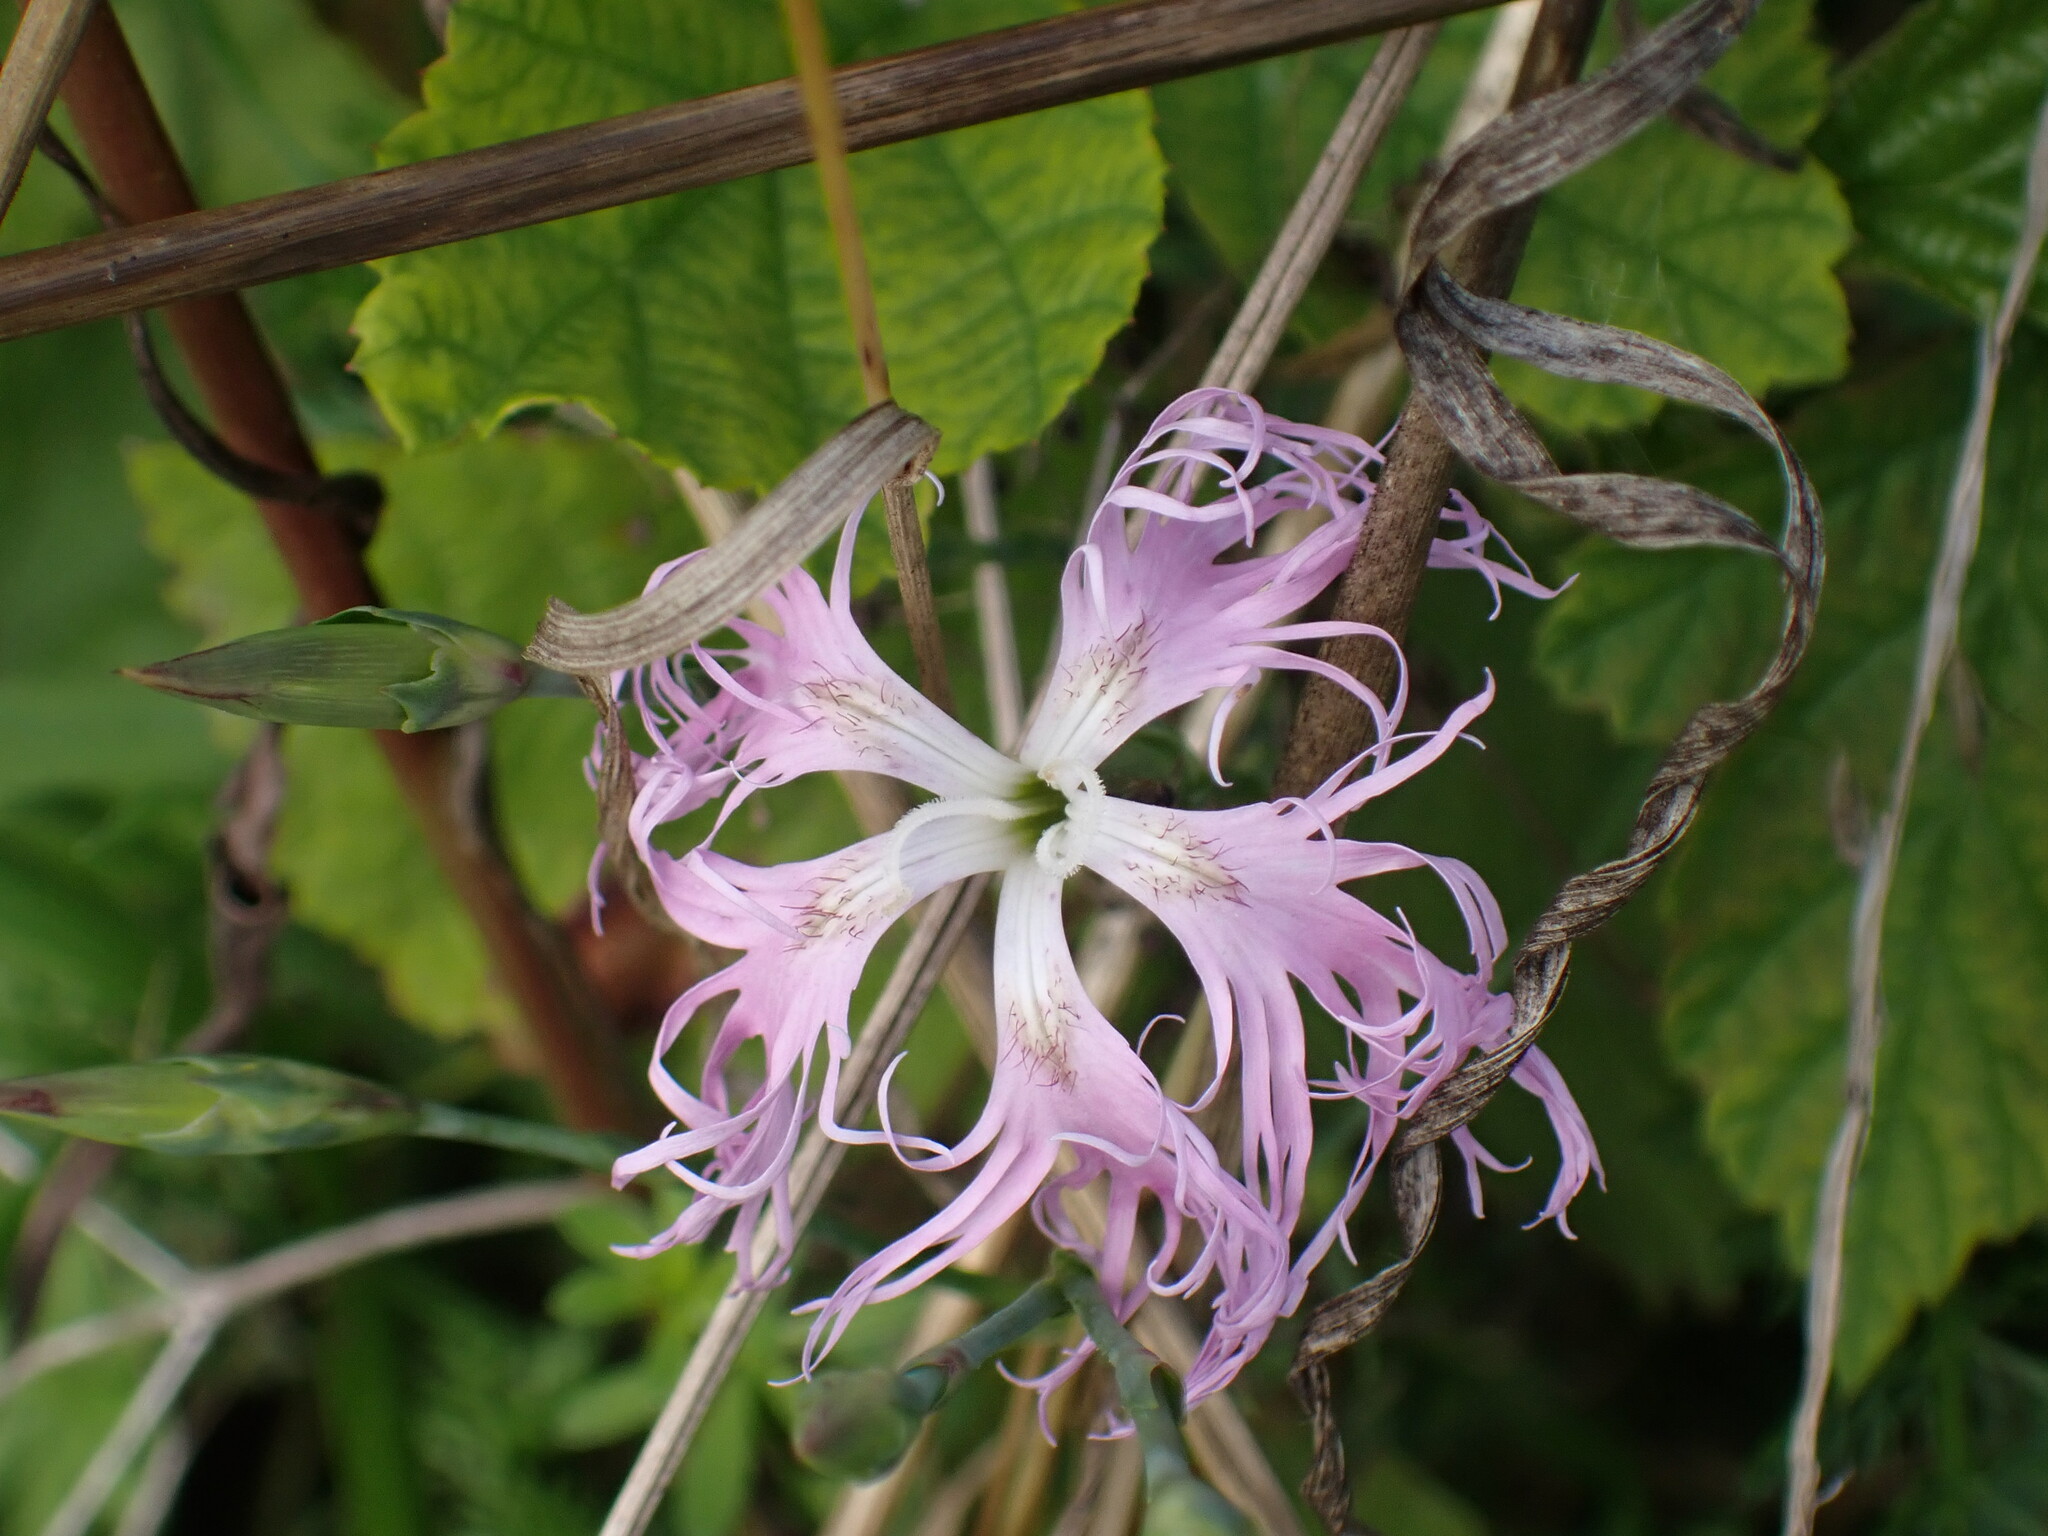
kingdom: Plantae
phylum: Tracheophyta
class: Magnoliopsida
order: Caryophyllales
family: Caryophyllaceae
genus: Dianthus
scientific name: Dianthus superbus
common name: Fringed pink
